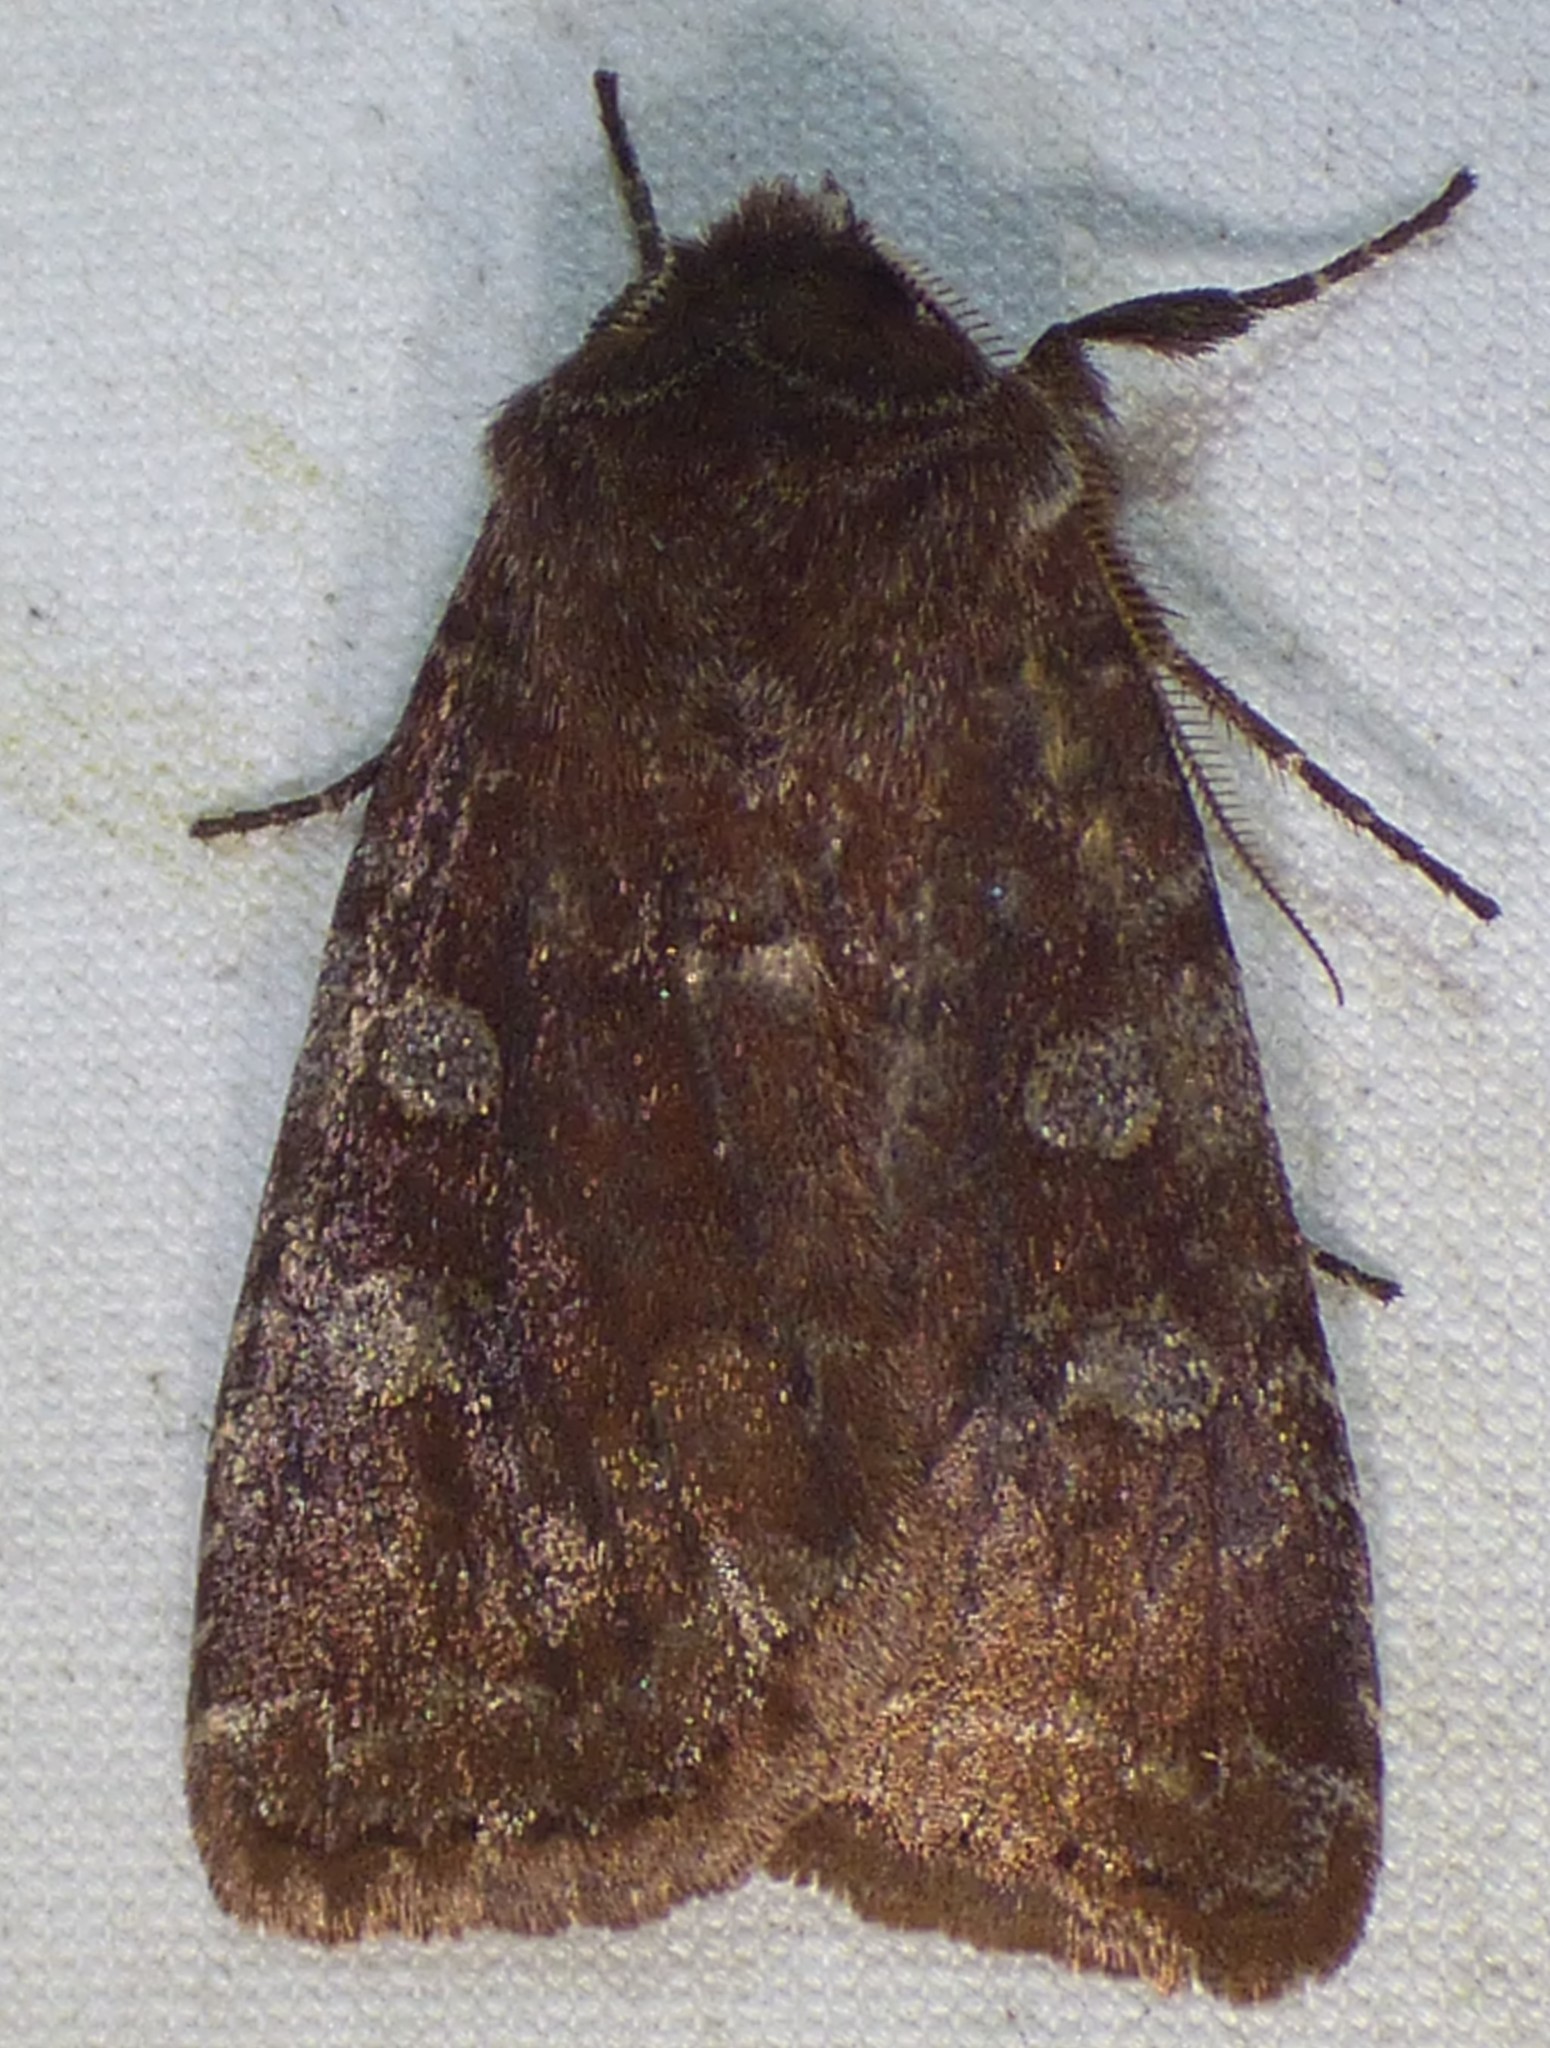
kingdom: Animalia
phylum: Arthropoda
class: Insecta
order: Lepidoptera
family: Noctuidae
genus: Cerastis
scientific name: Cerastis tenebrifera
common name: Reddish speckled dart
